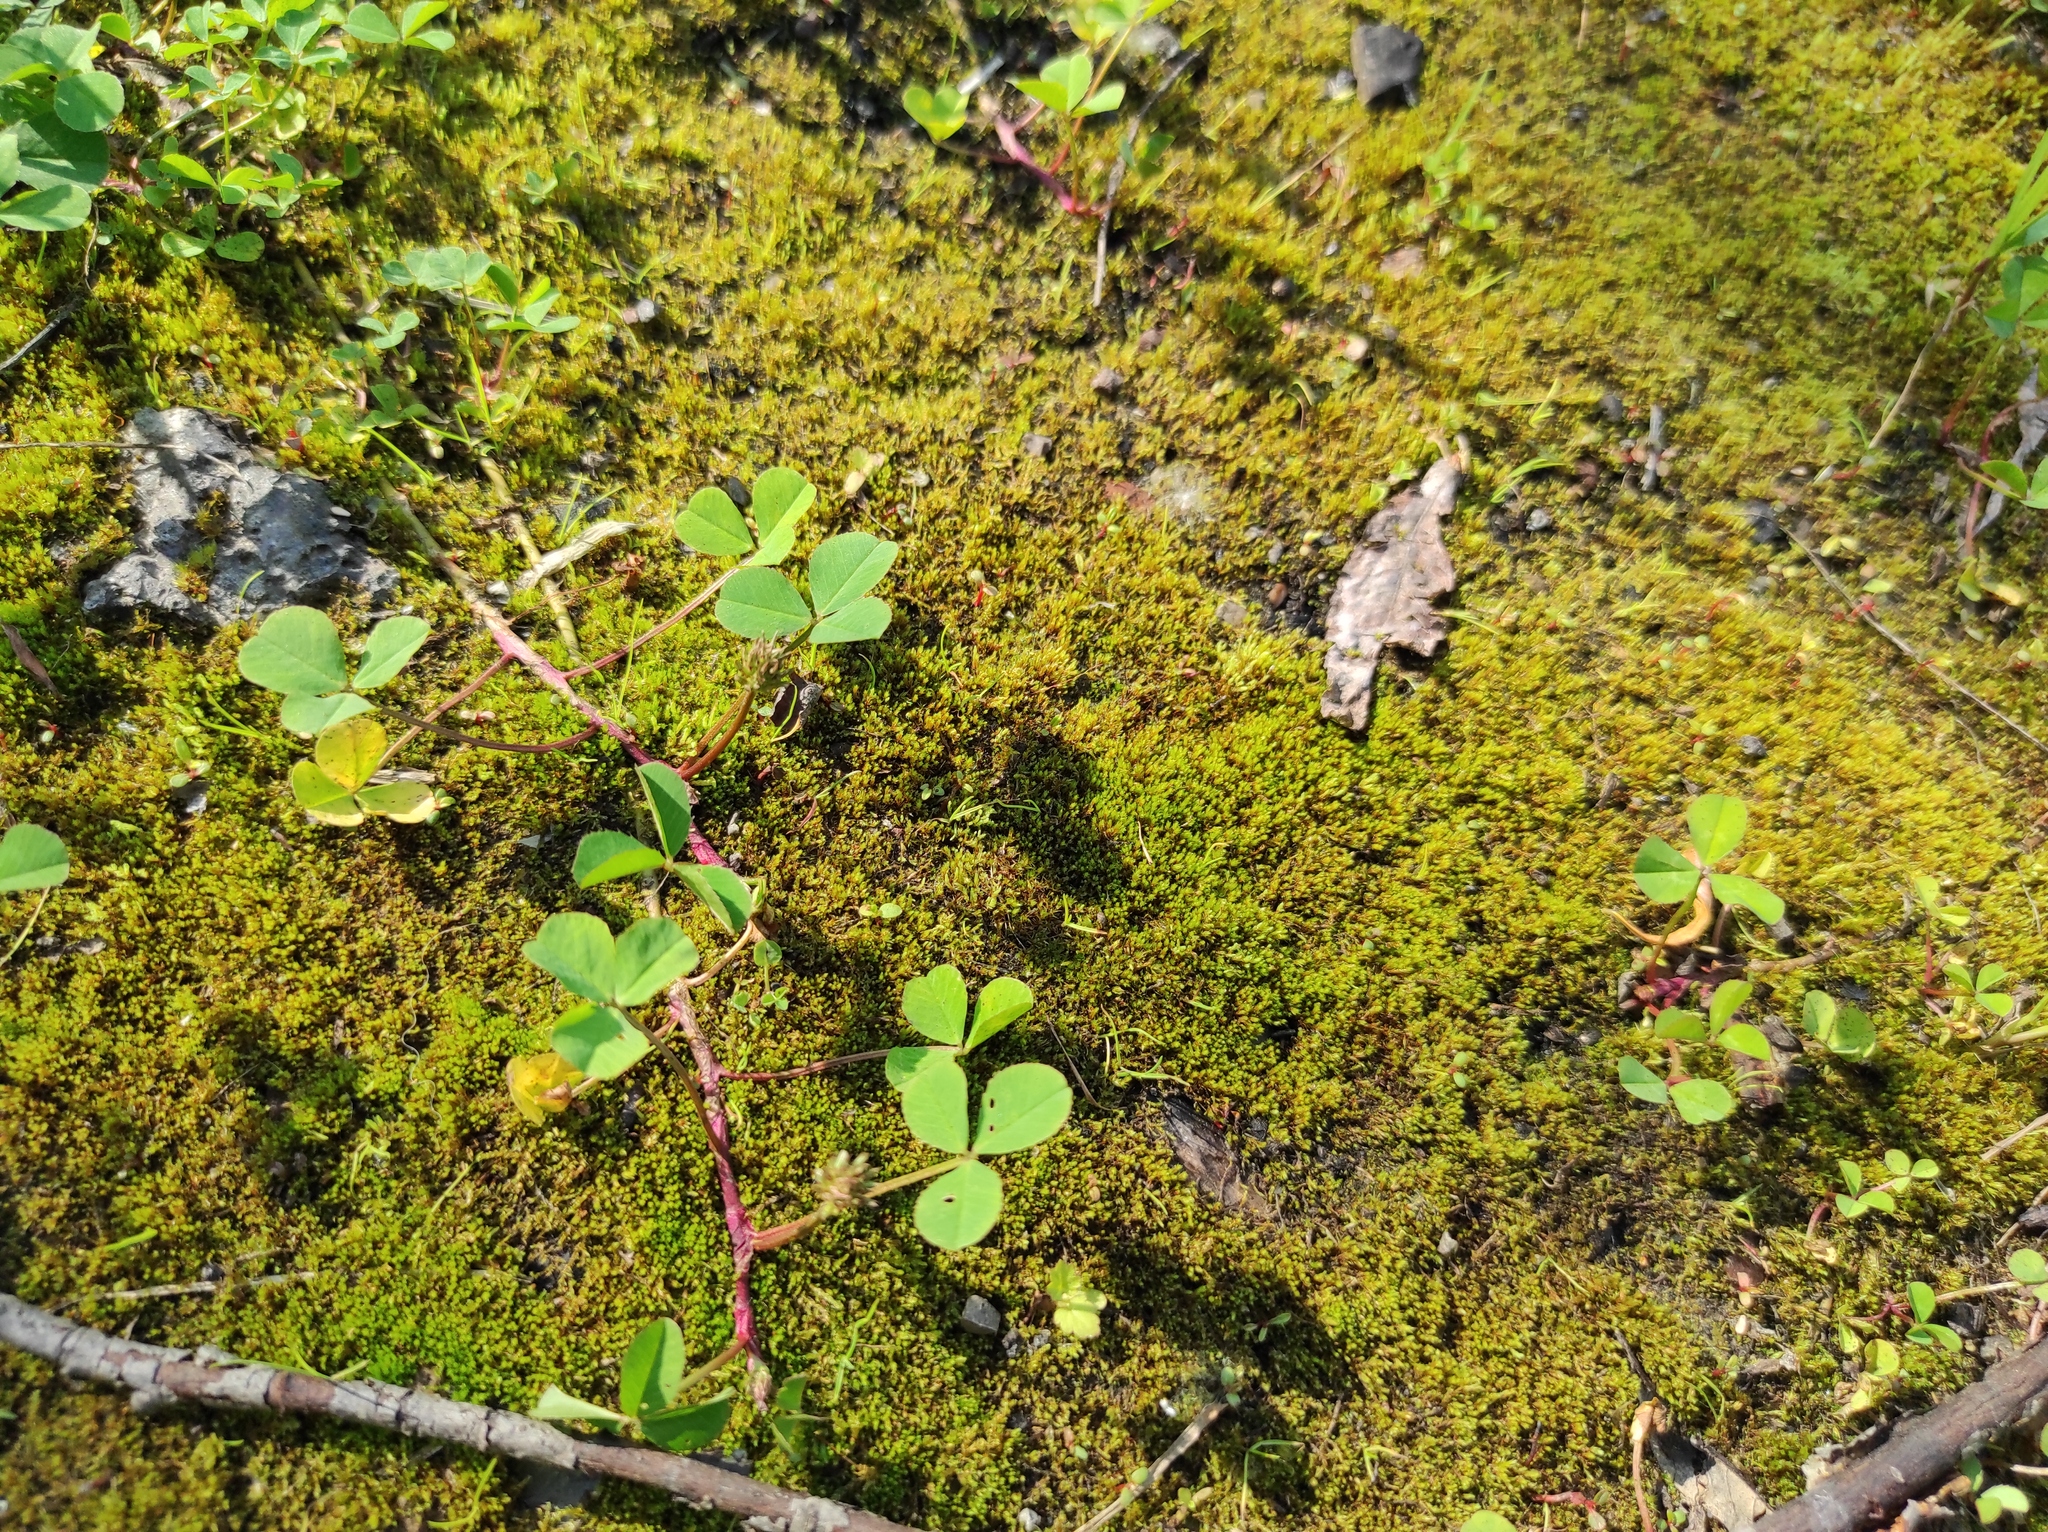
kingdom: Plantae
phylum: Tracheophyta
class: Magnoliopsida
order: Fabales
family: Fabaceae
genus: Trifolium
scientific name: Trifolium repens
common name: White clover
